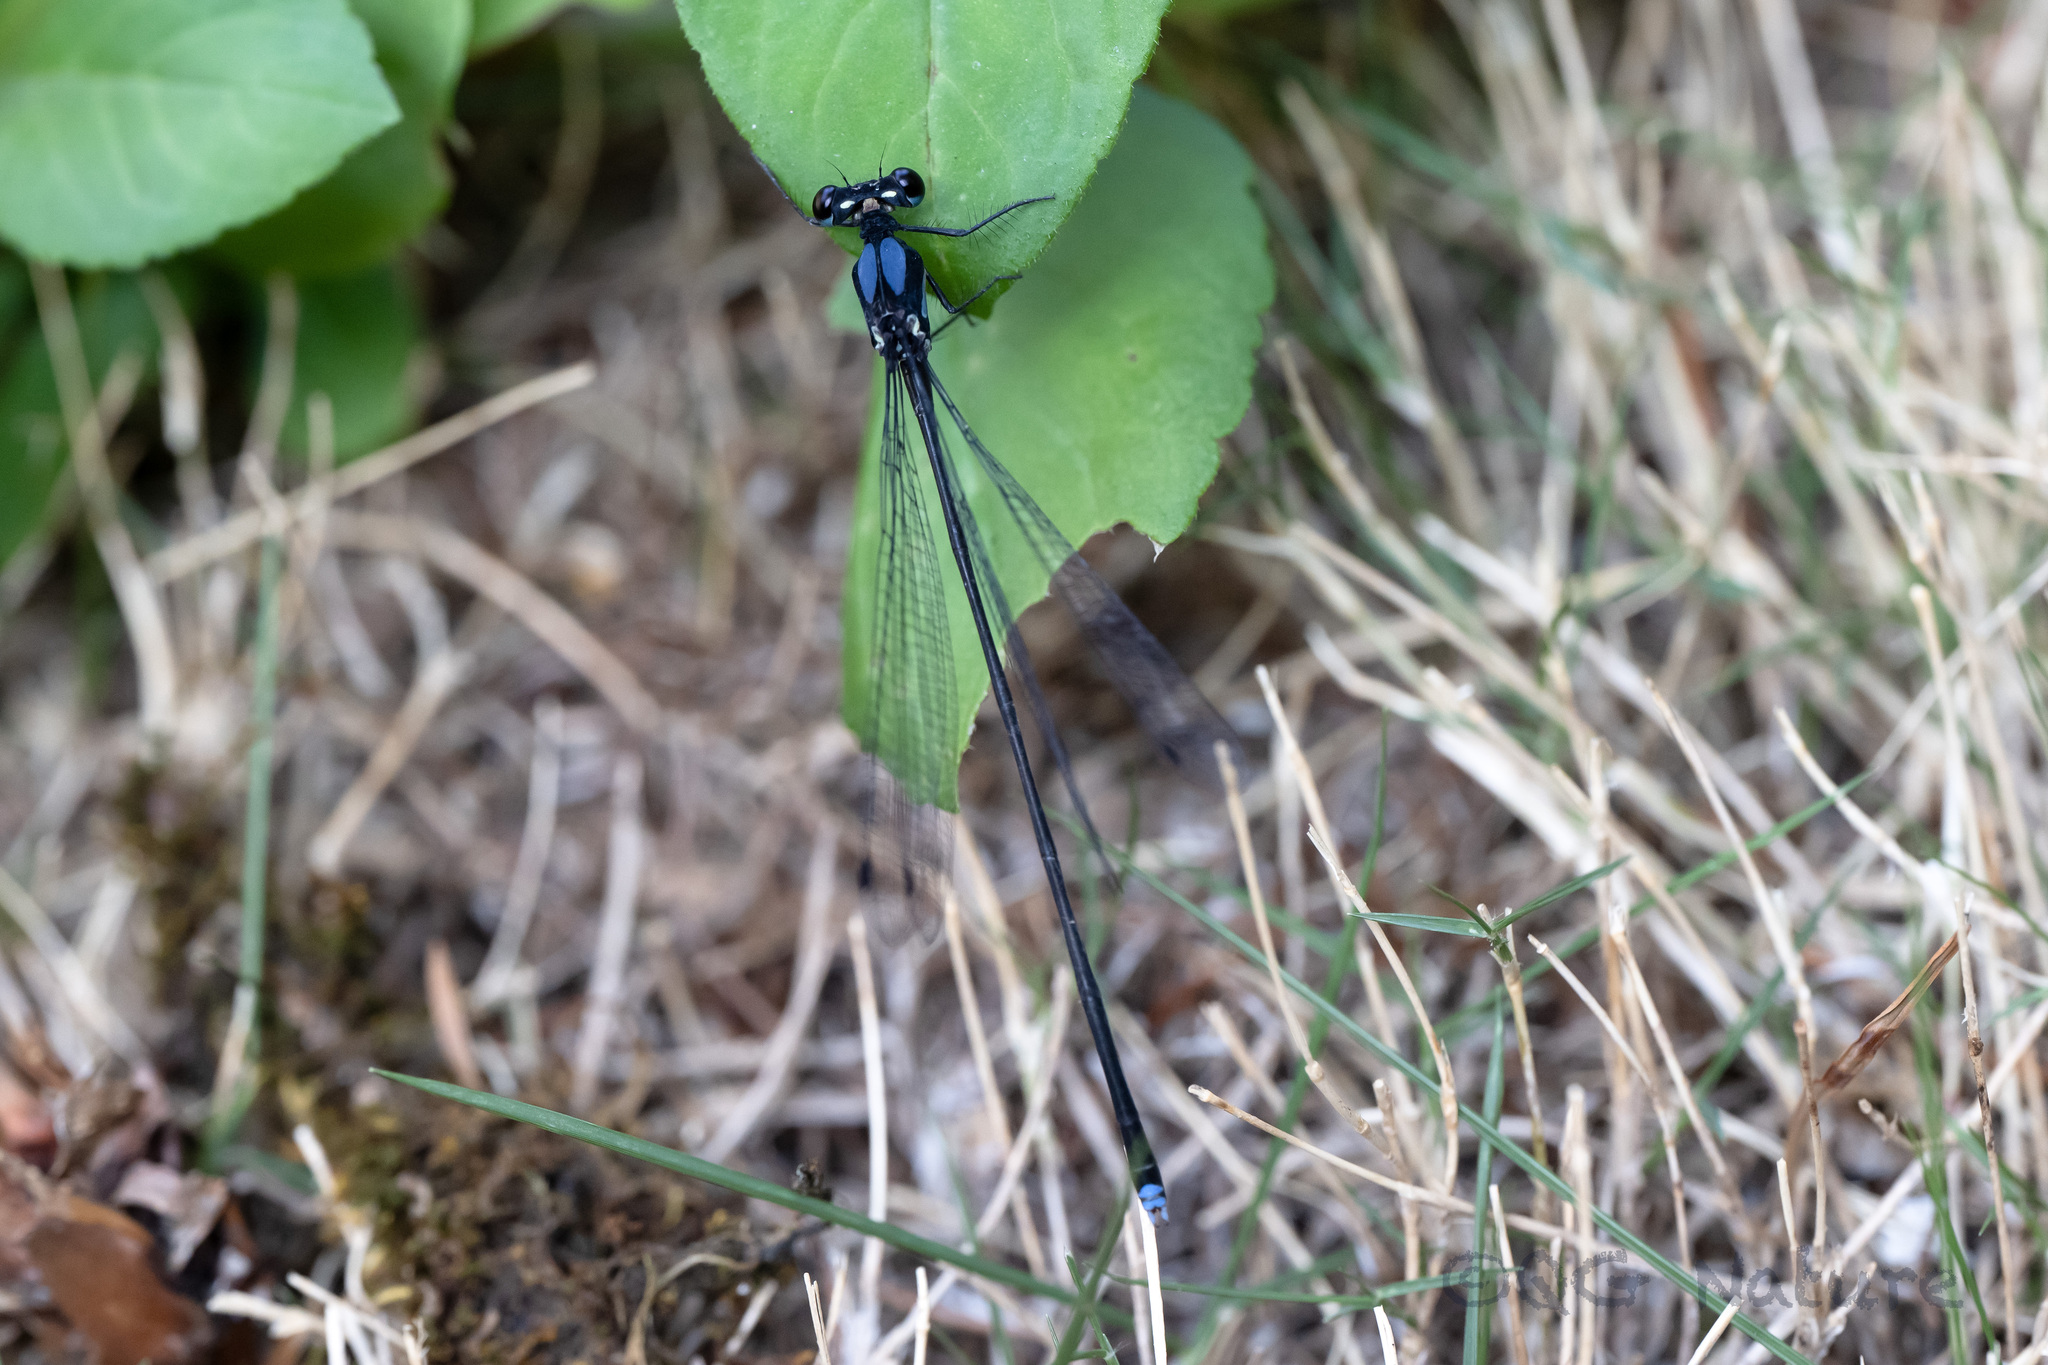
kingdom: Animalia
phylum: Arthropoda
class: Insecta
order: Odonata
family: Platycnemididae
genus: Indocnemis
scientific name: Indocnemis orang
